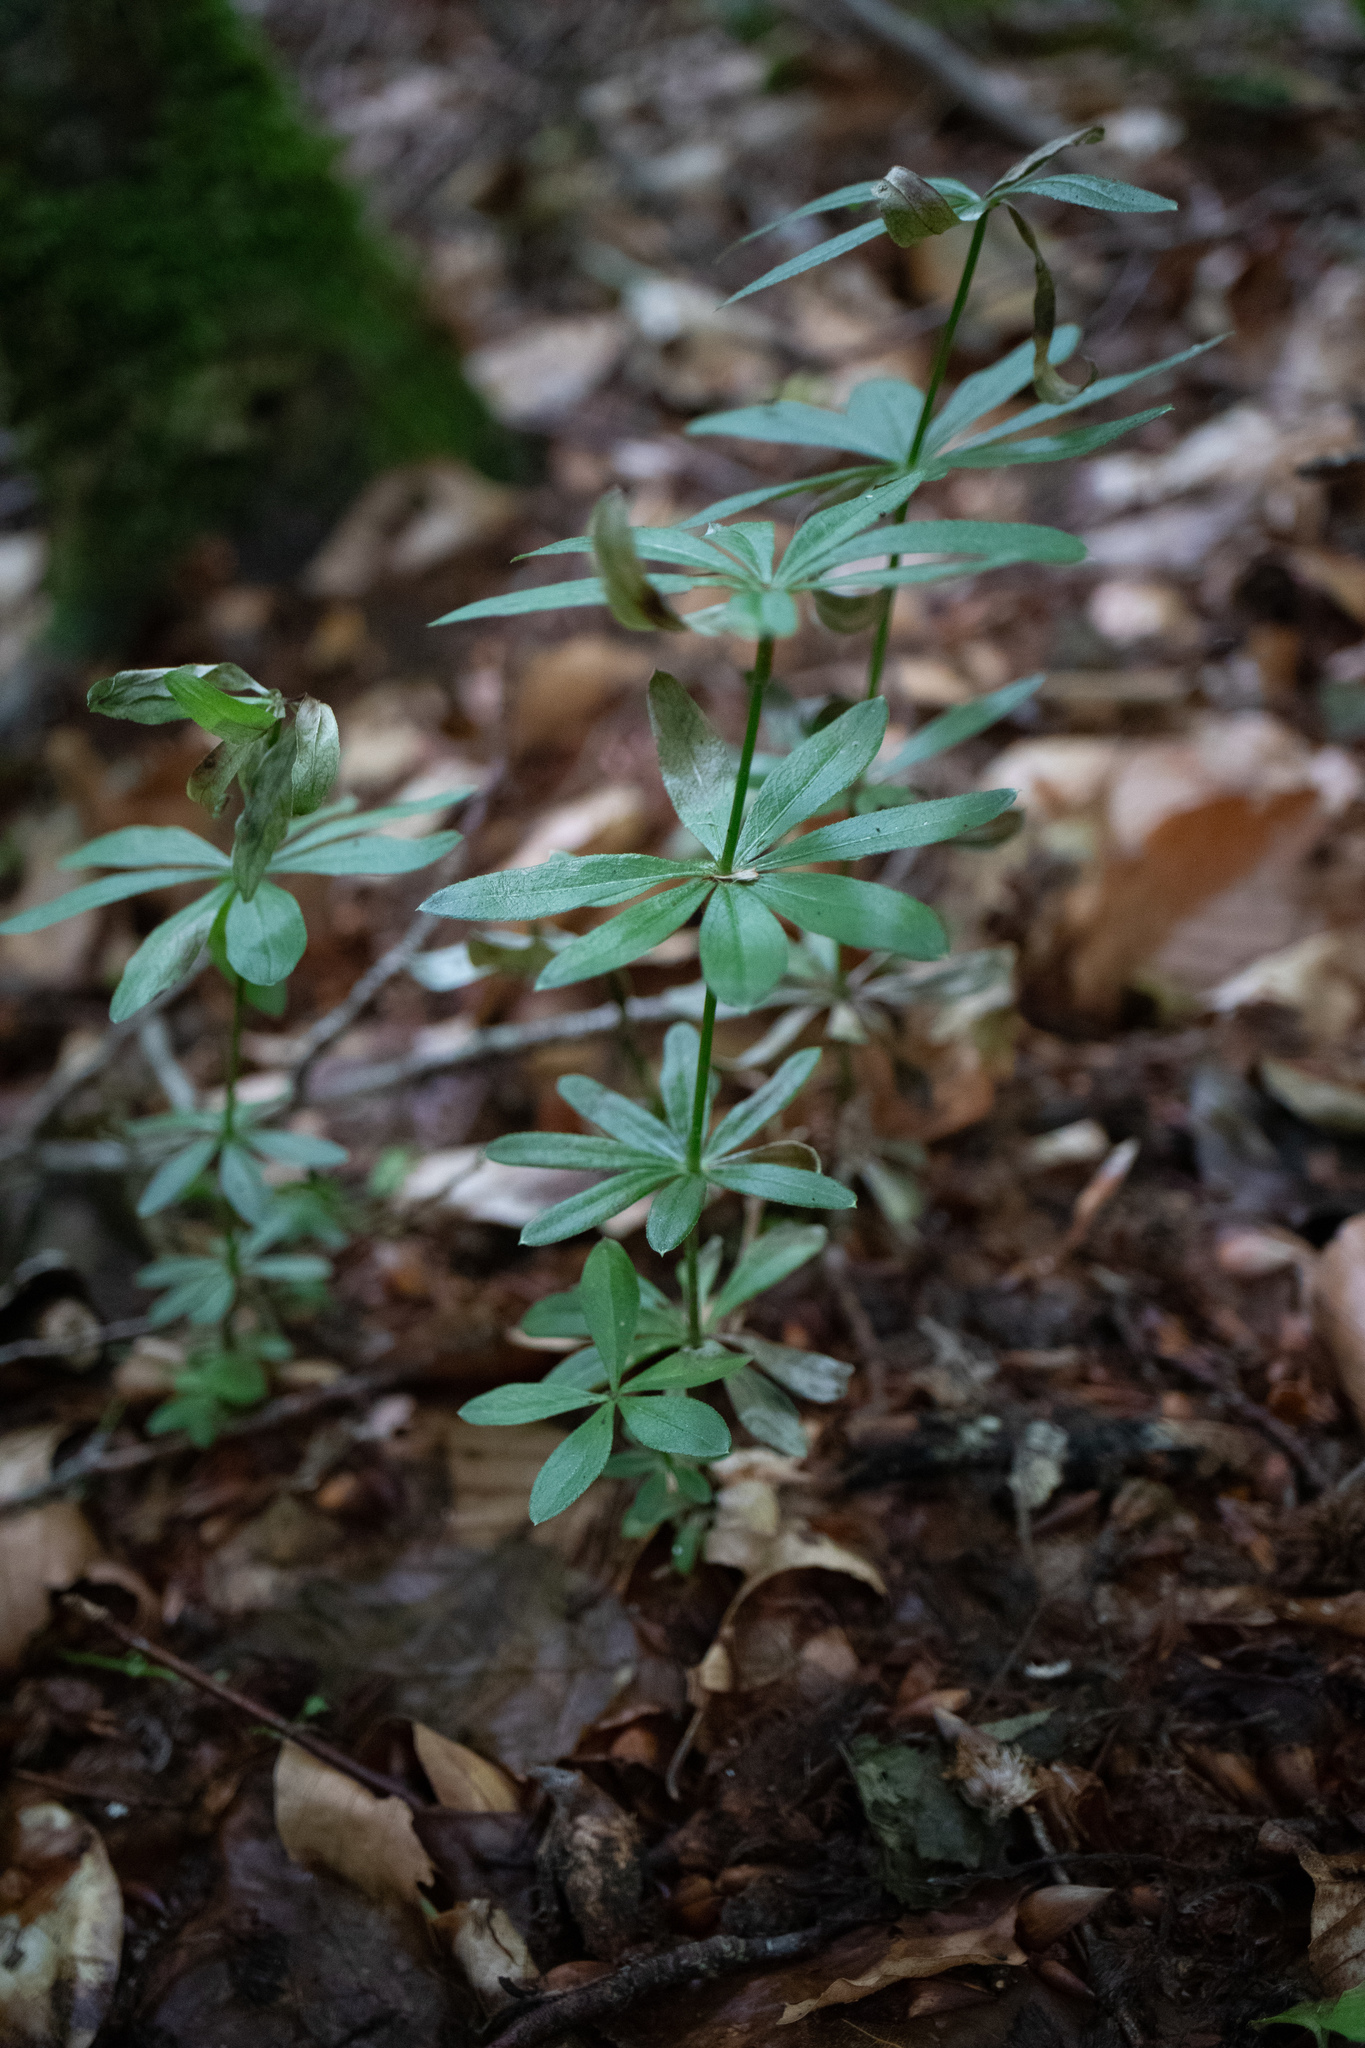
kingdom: Plantae
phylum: Tracheophyta
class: Magnoliopsida
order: Gentianales
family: Rubiaceae
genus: Galium
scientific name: Galium odoratum
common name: Sweet woodruff
